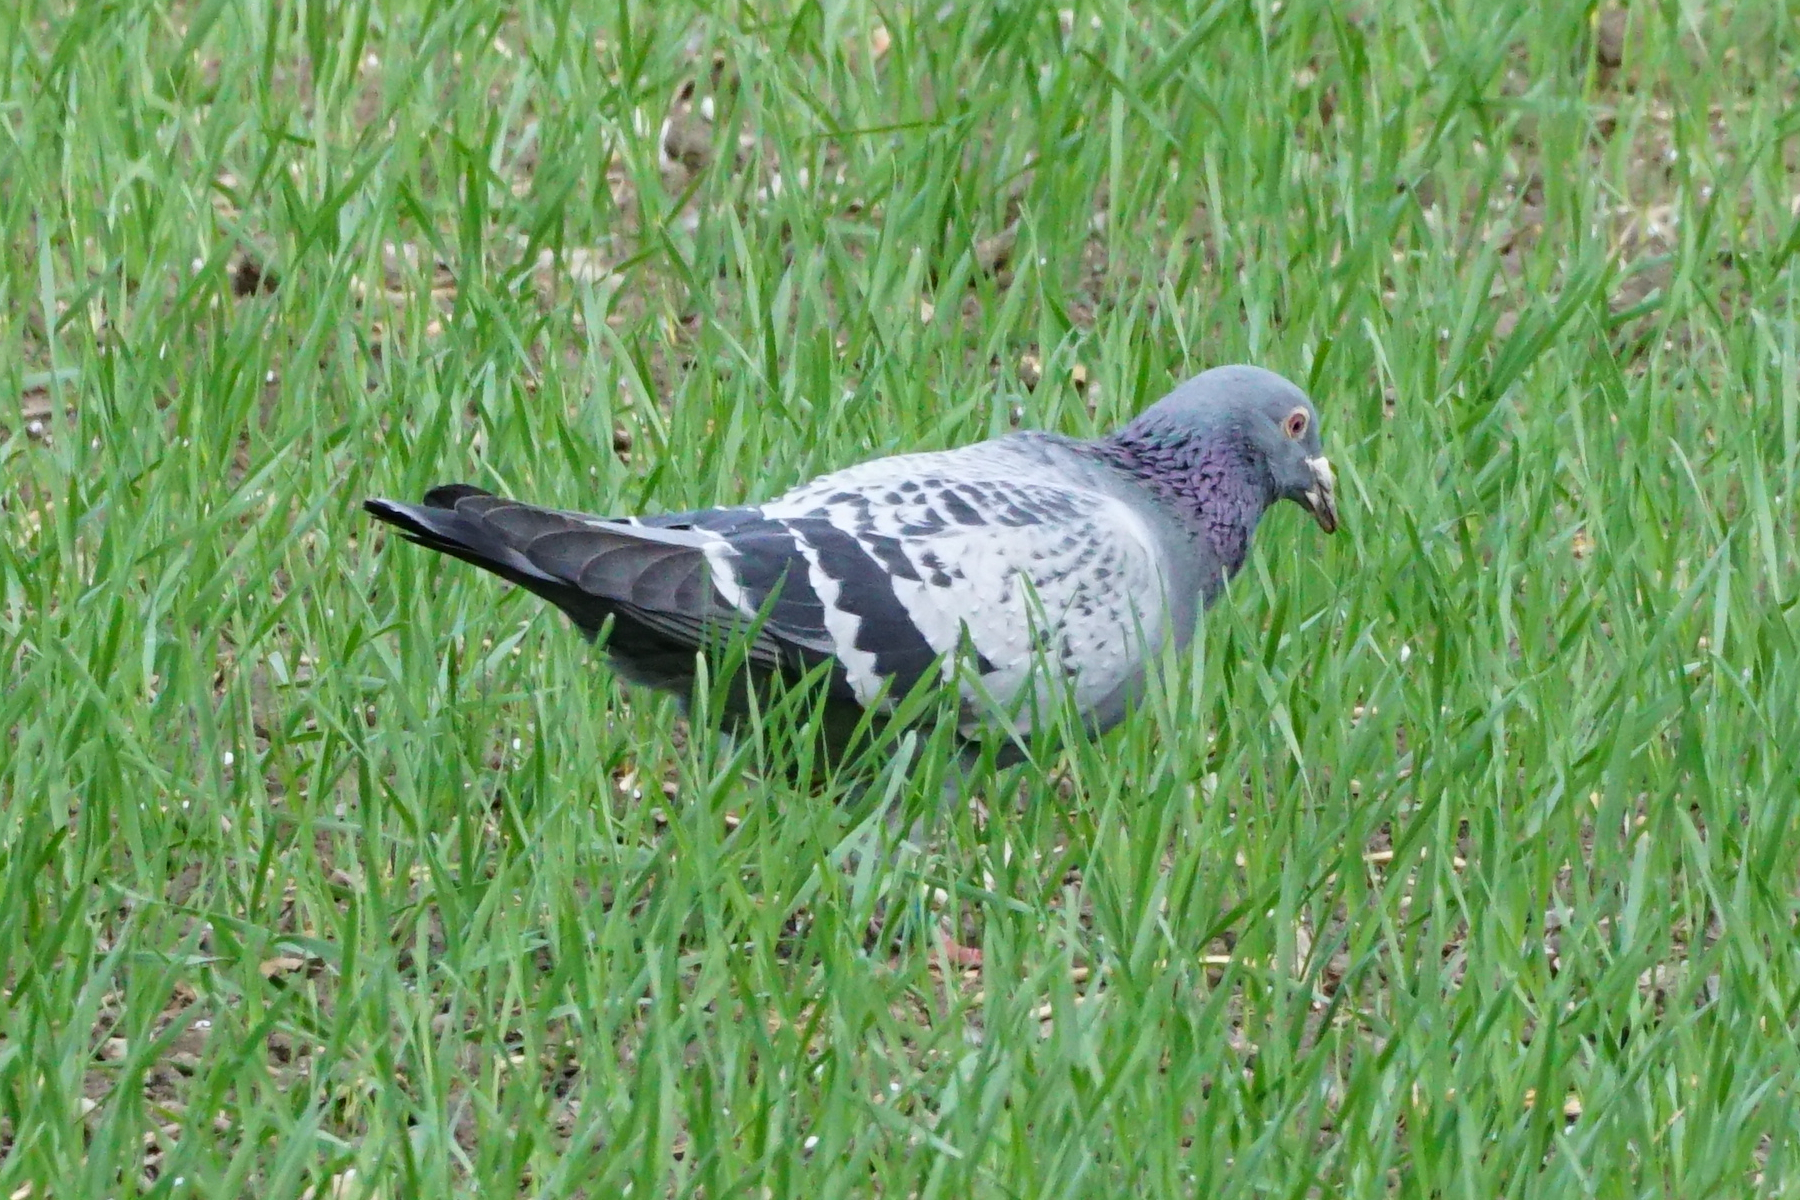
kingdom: Animalia
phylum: Chordata
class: Aves
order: Columbiformes
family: Columbidae
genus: Columba
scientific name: Columba livia
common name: Rock pigeon
